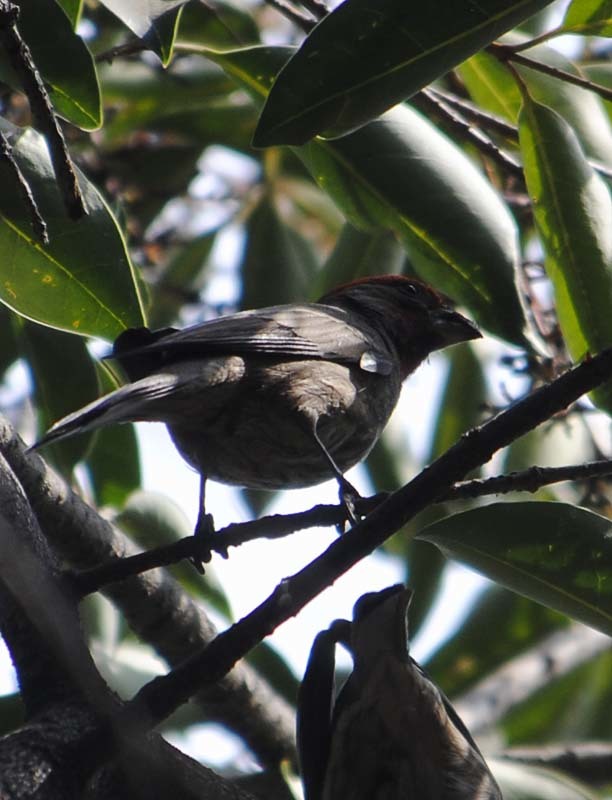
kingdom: Animalia
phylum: Chordata
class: Aves
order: Passeriformes
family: Fringillidae
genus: Haemorhous
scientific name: Haemorhous mexicanus
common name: House finch
